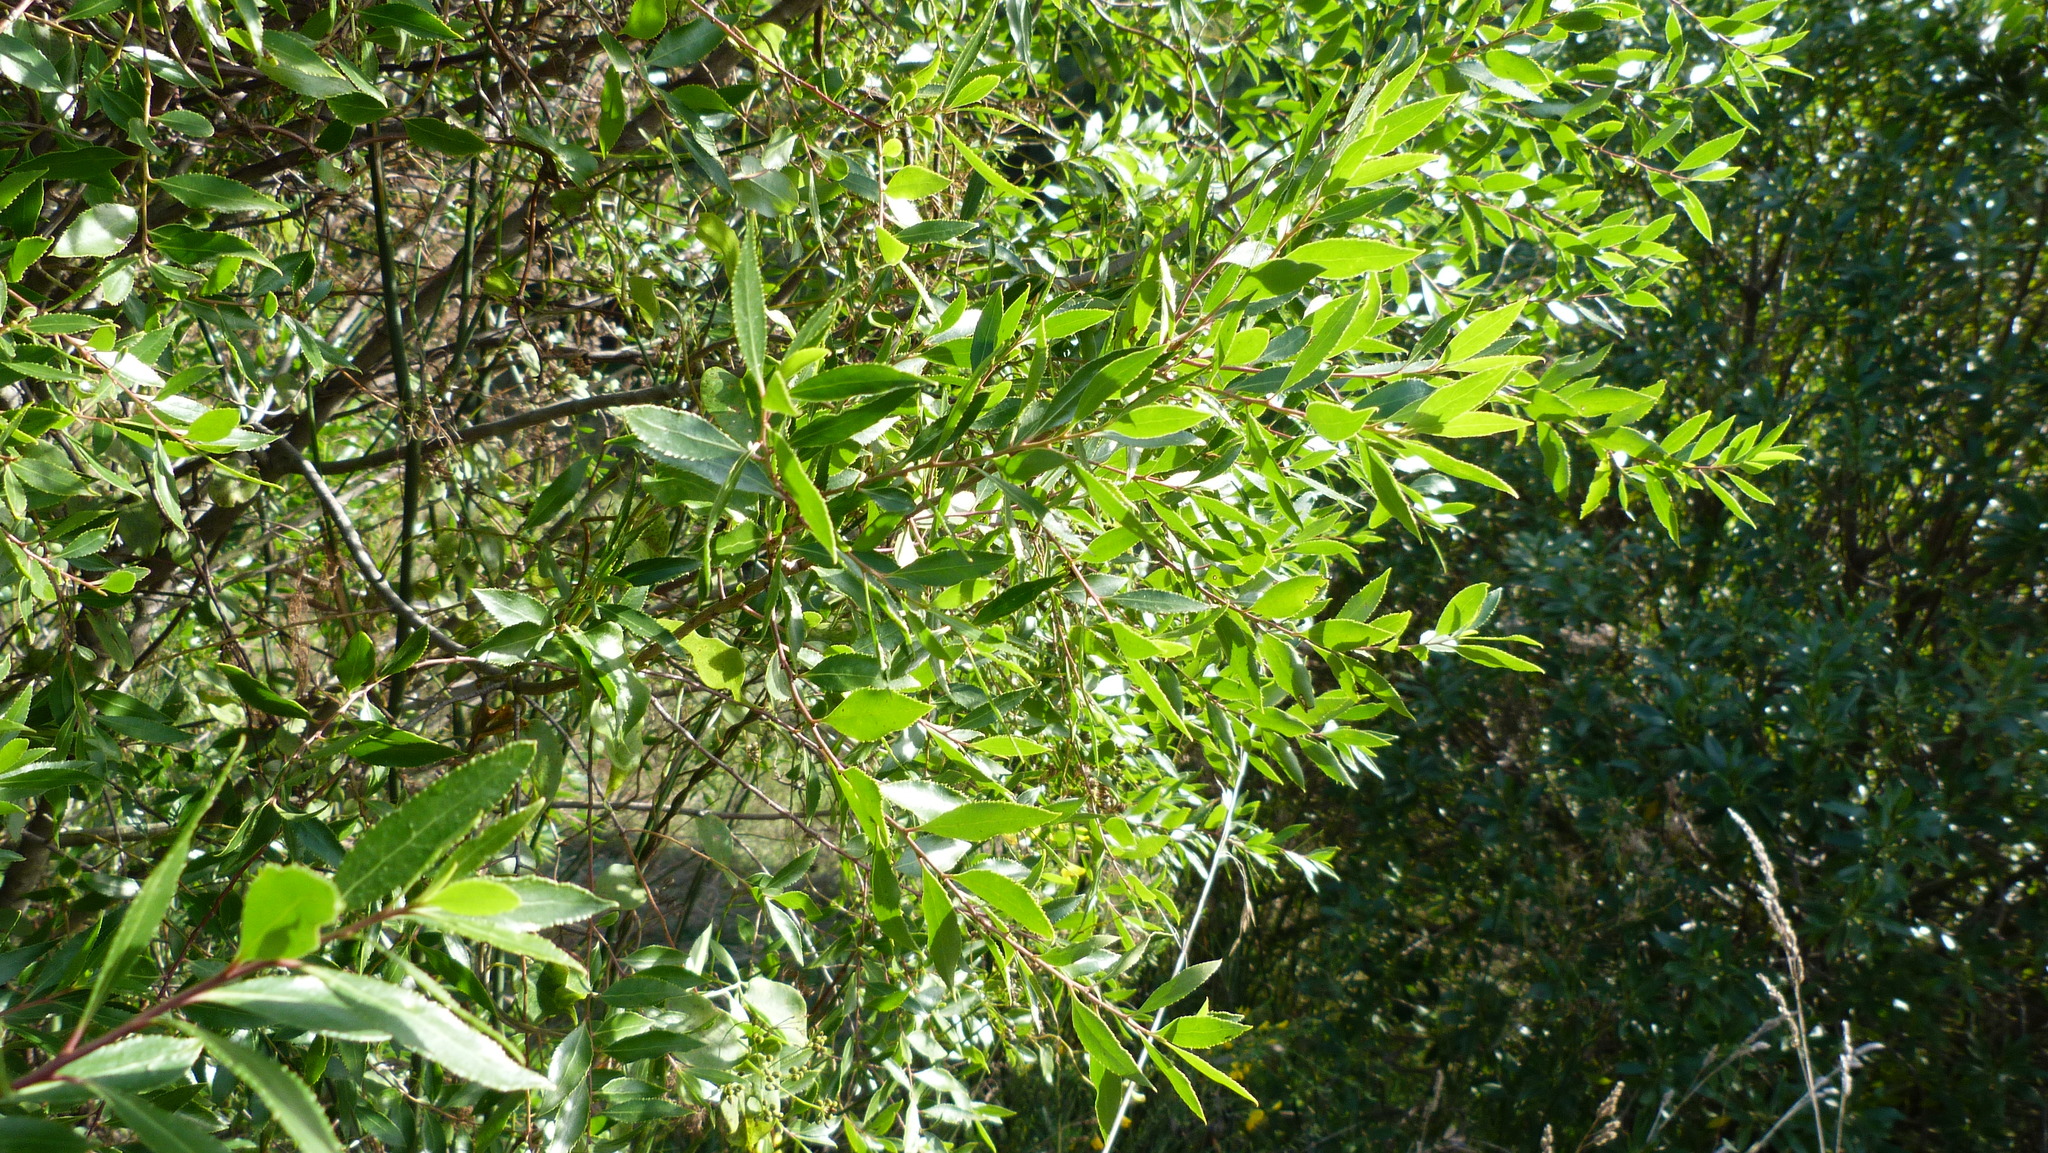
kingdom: Plantae
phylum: Tracheophyta
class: Magnoliopsida
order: Celastrales
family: Celastraceae
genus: Maytenus
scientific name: Maytenus boaria
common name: Mayten
